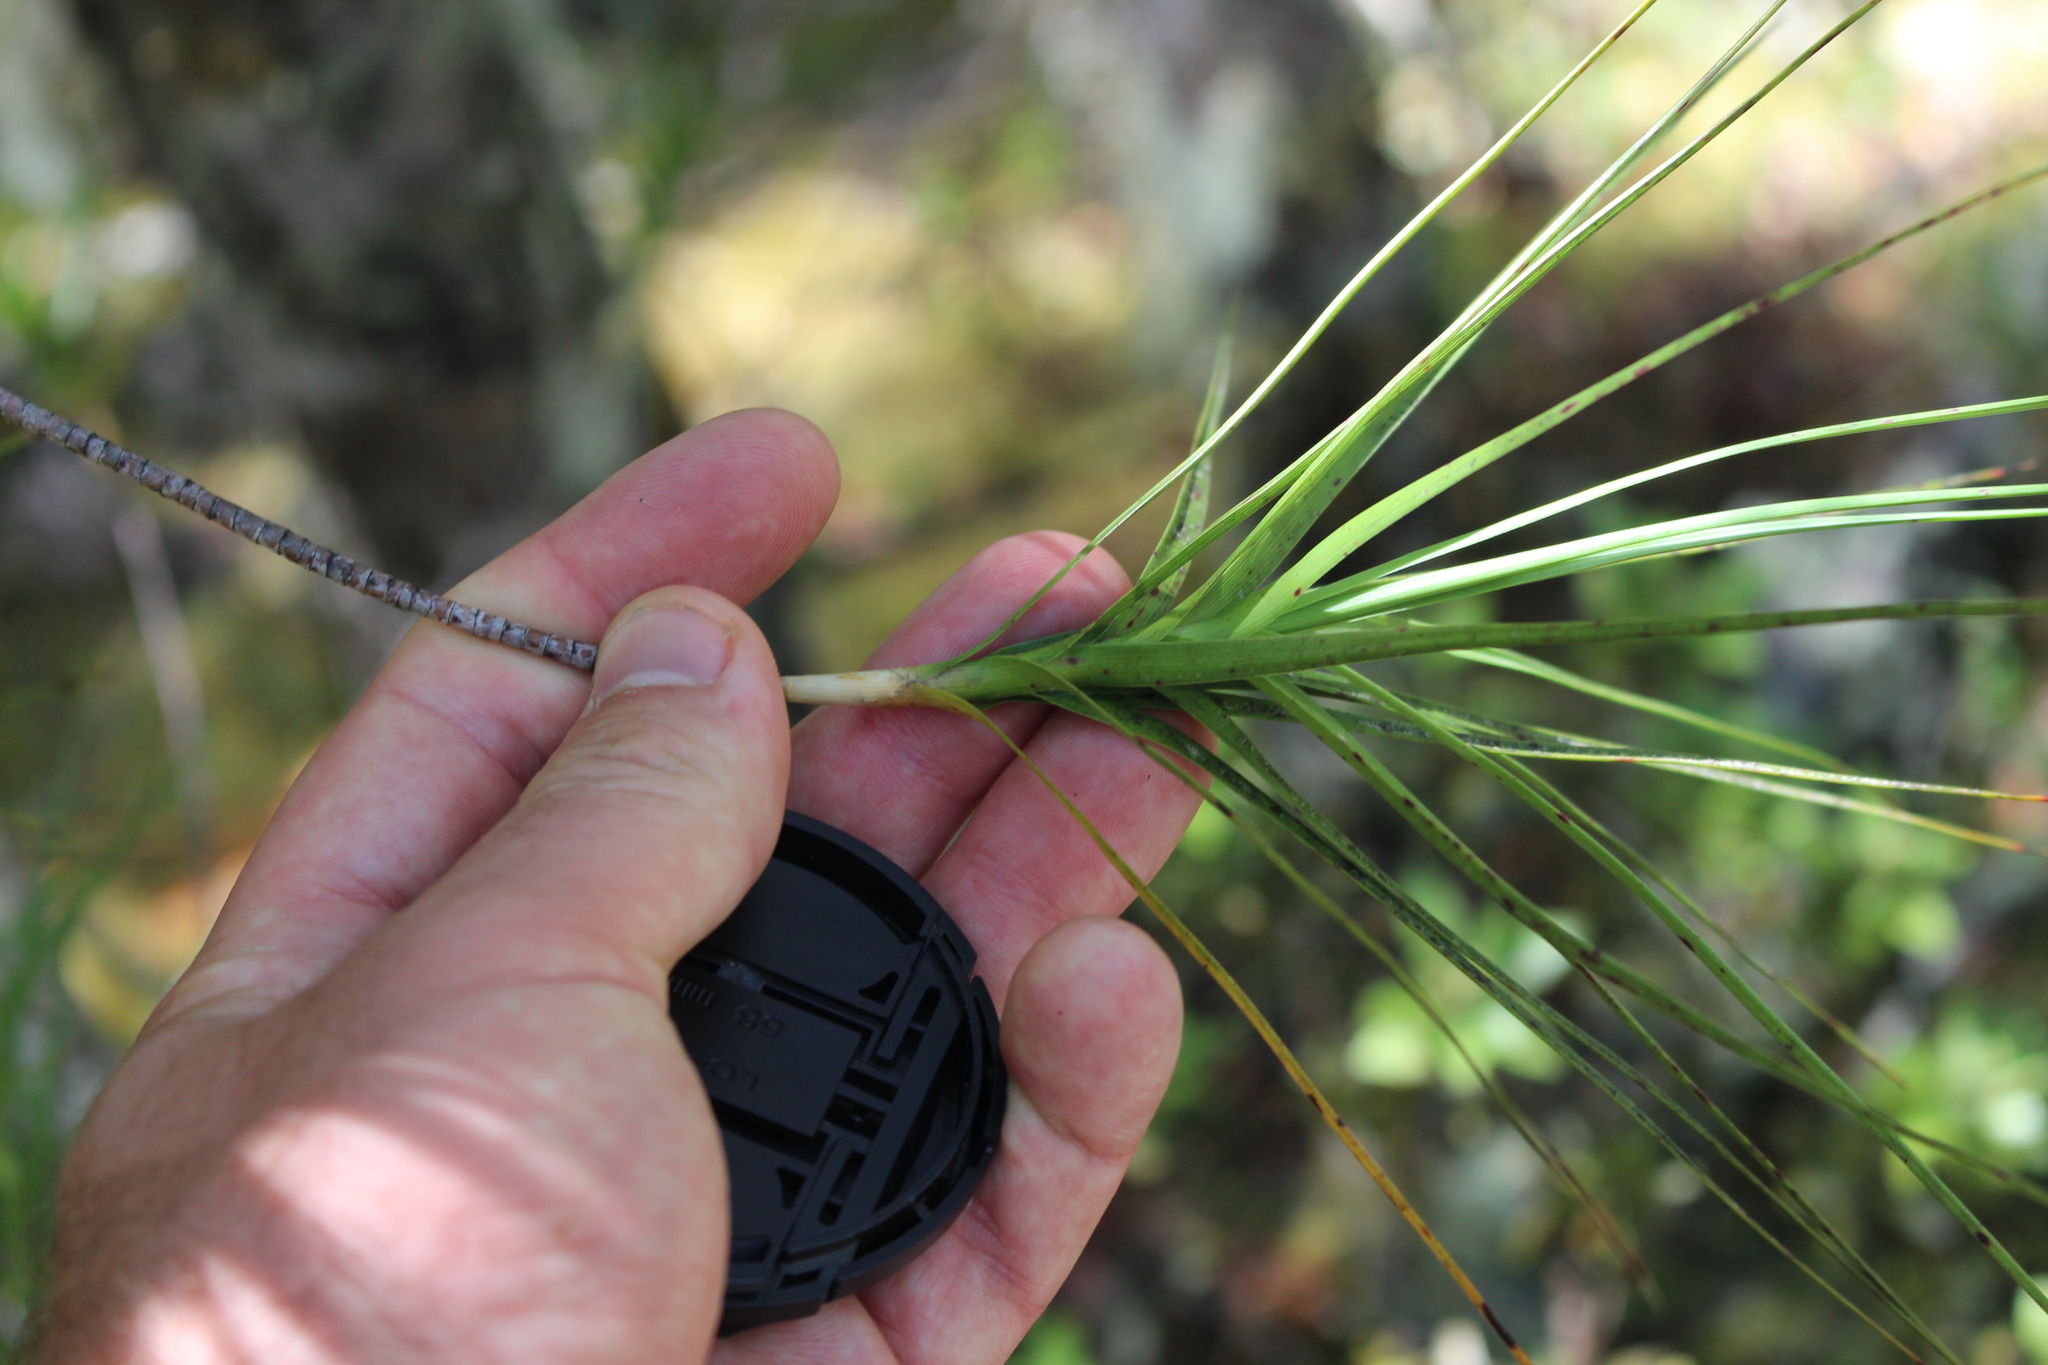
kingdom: Plantae
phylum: Tracheophyta
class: Magnoliopsida
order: Ericales
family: Ericaceae
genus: Dracophyllum
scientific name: Dracophyllum longifolium
